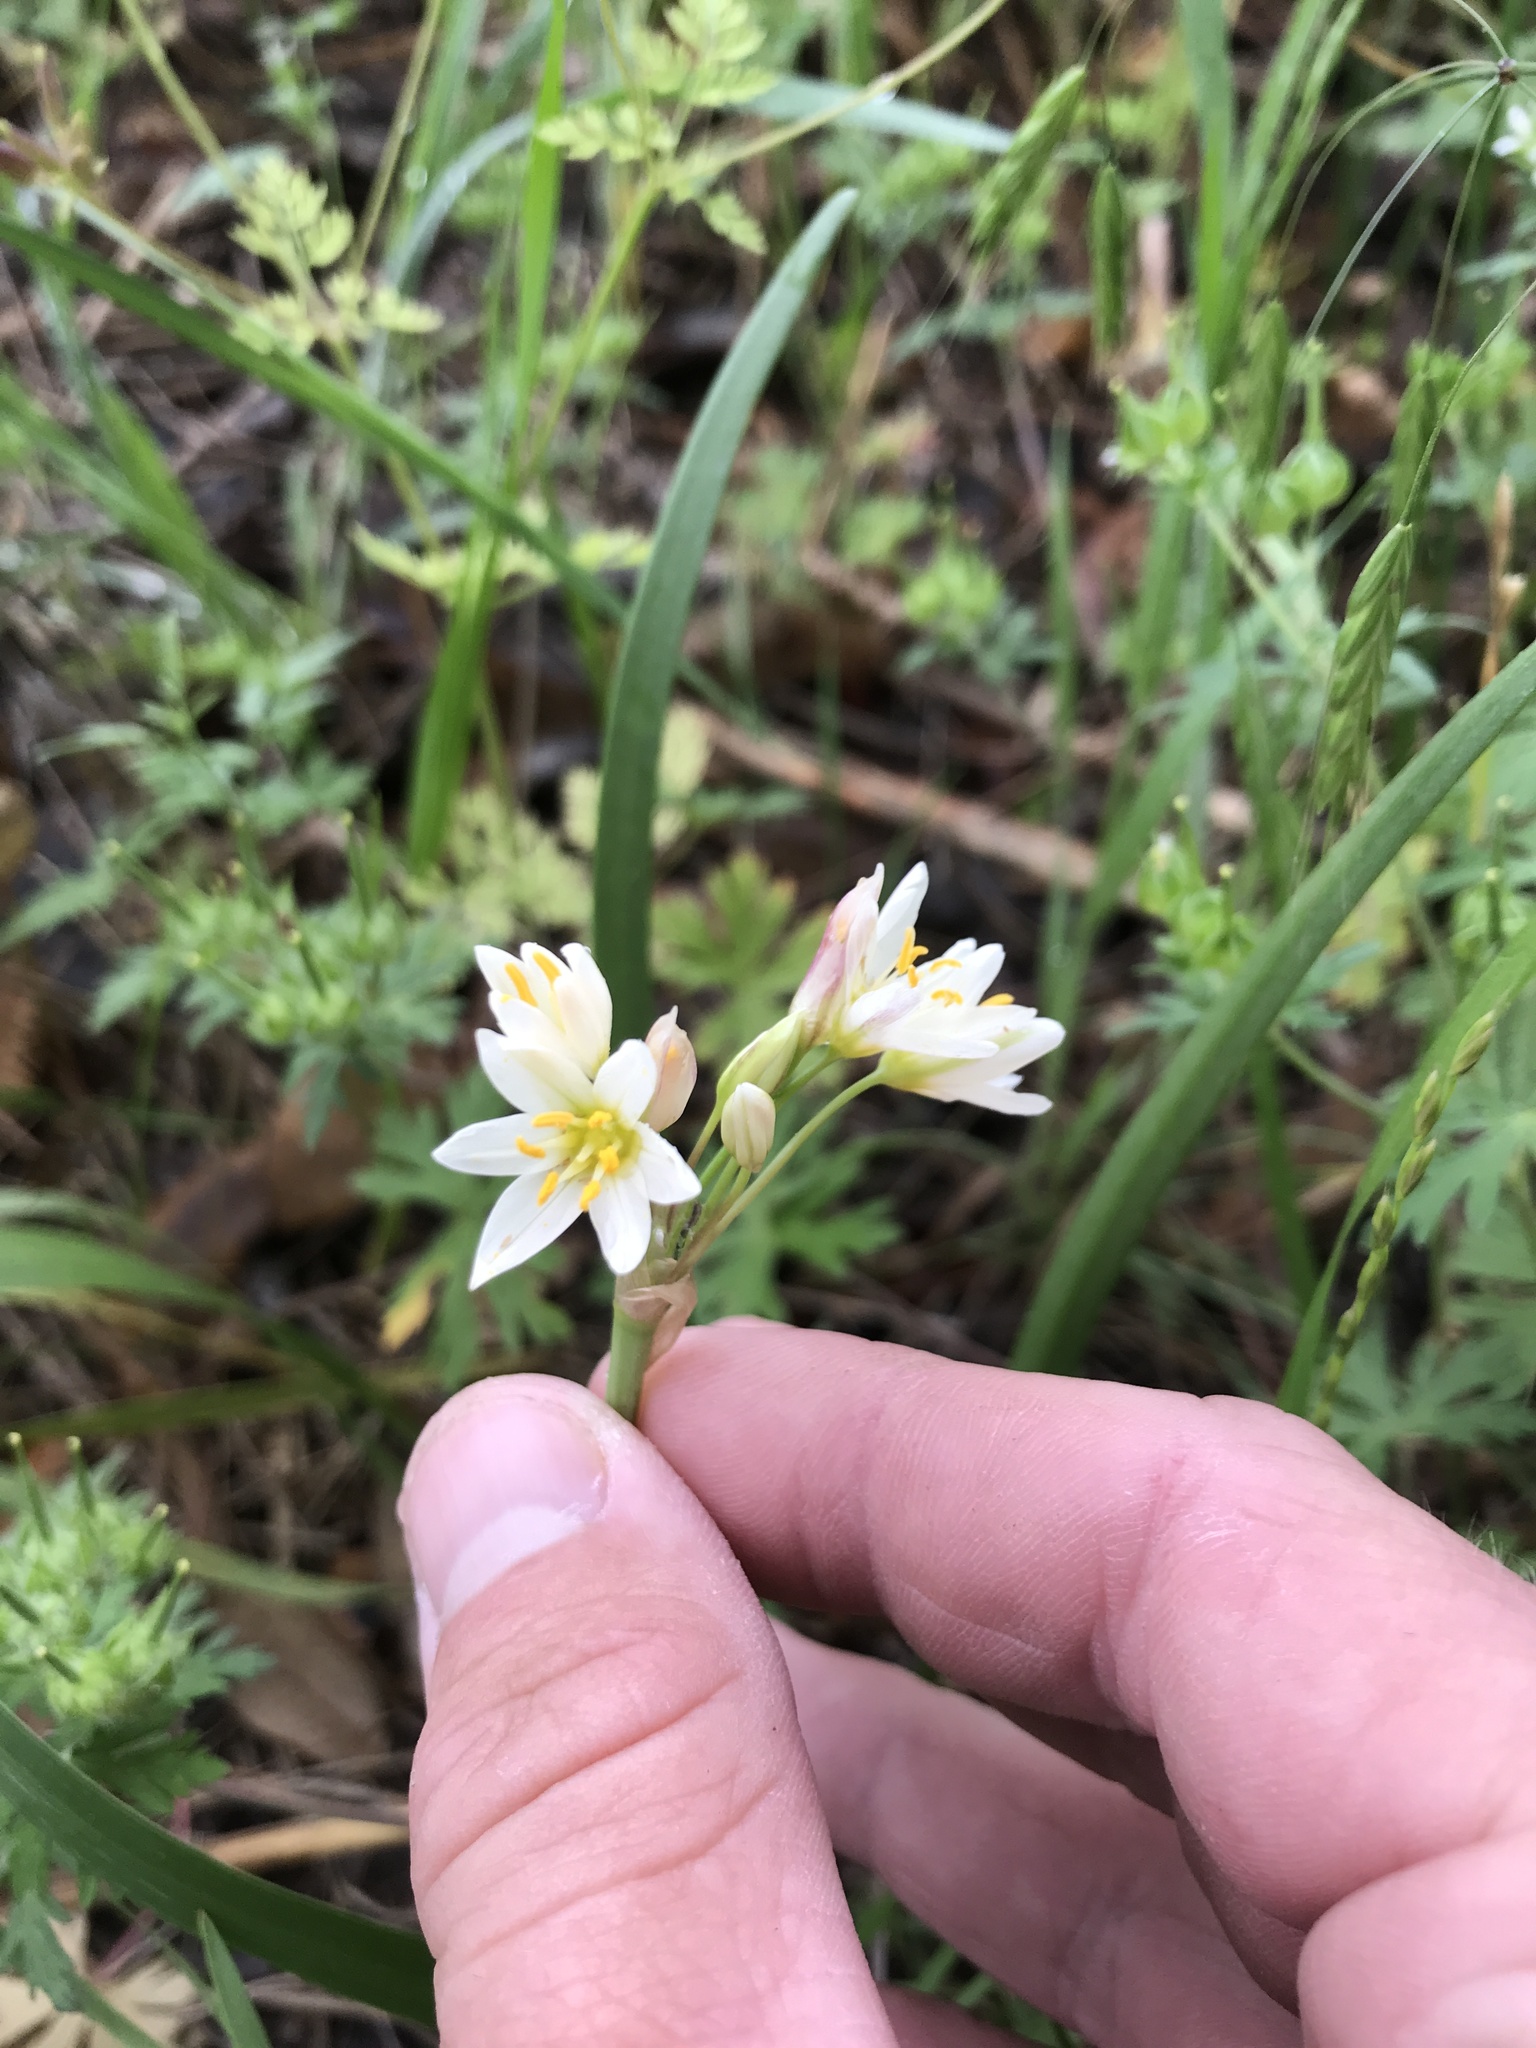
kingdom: Plantae
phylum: Tracheophyta
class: Liliopsida
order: Asparagales
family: Amaryllidaceae
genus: Nothoscordum
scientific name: Nothoscordum bivalve
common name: Crow-poison
